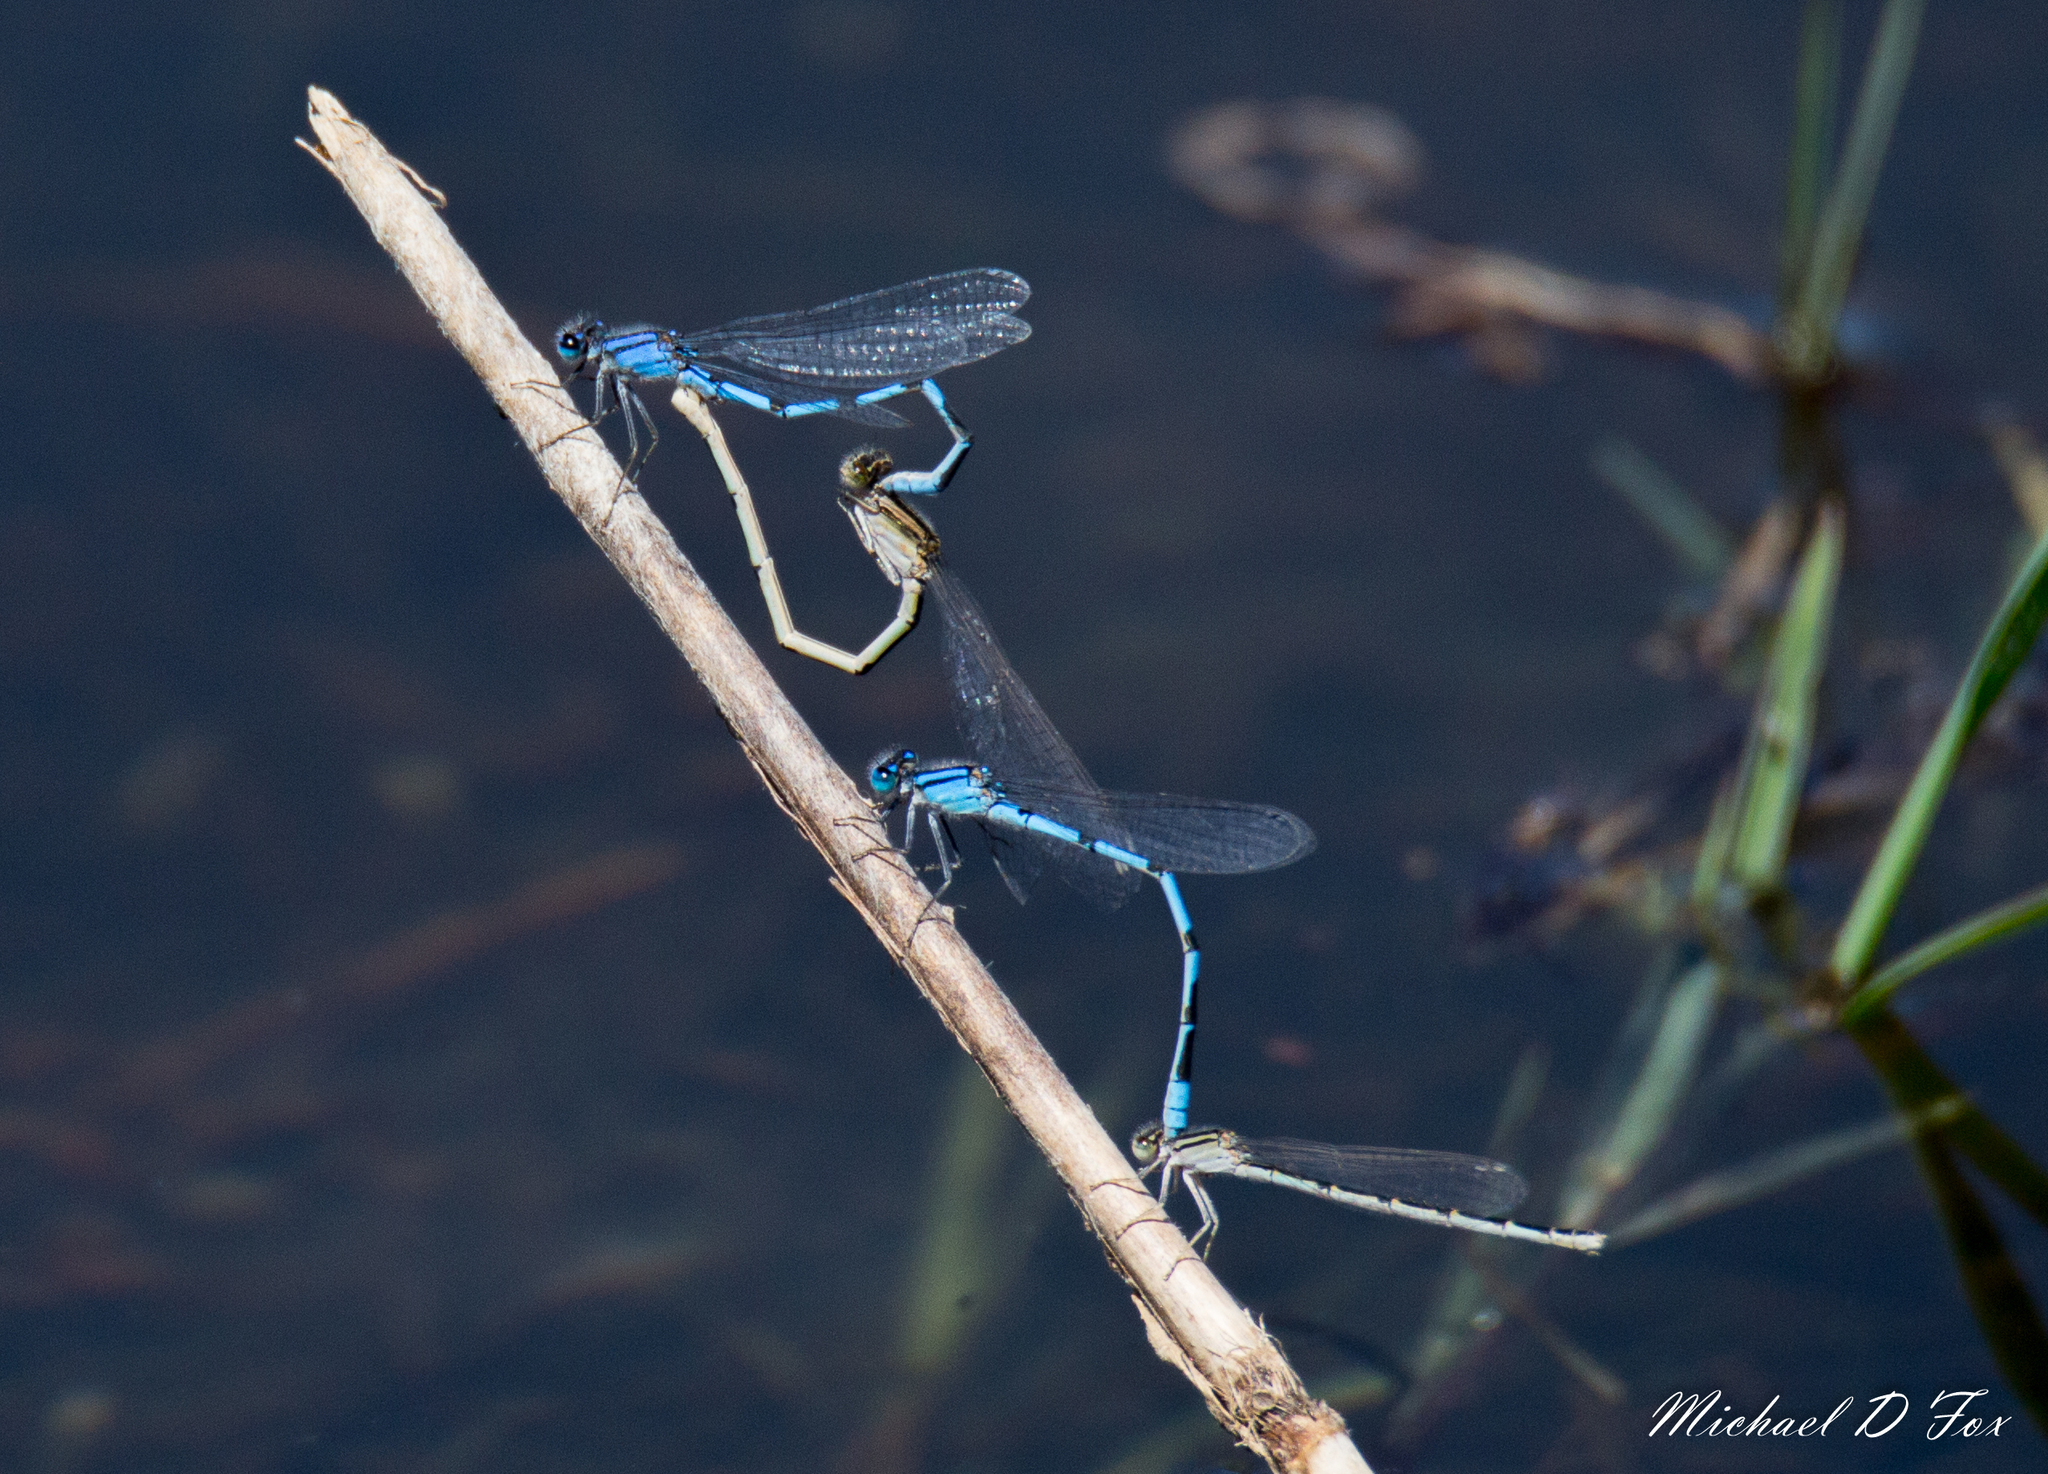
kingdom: Animalia
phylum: Arthropoda
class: Insecta
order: Odonata
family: Coenagrionidae
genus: Enallagma
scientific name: Enallagma civile
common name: Damselfly
